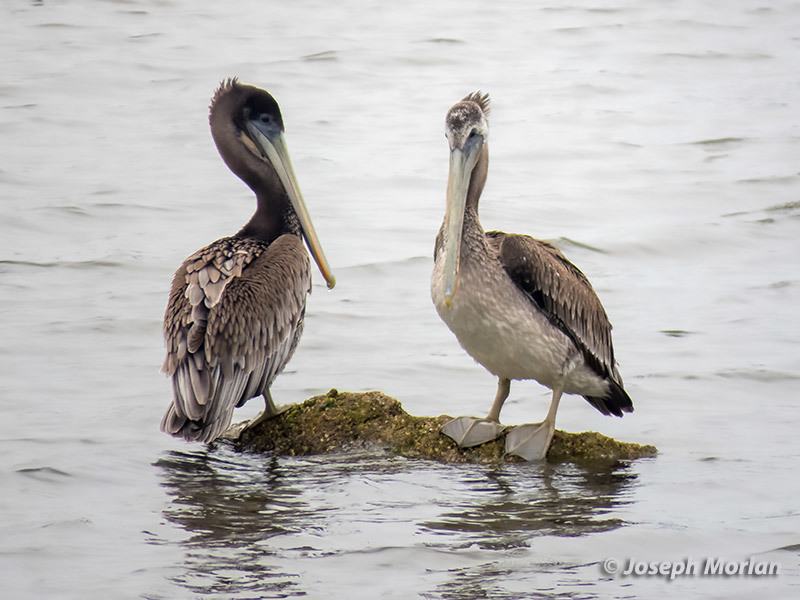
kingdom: Animalia
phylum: Chordata
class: Aves
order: Pelecaniformes
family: Pelecanidae
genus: Pelecanus
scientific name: Pelecanus occidentalis
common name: Brown pelican
